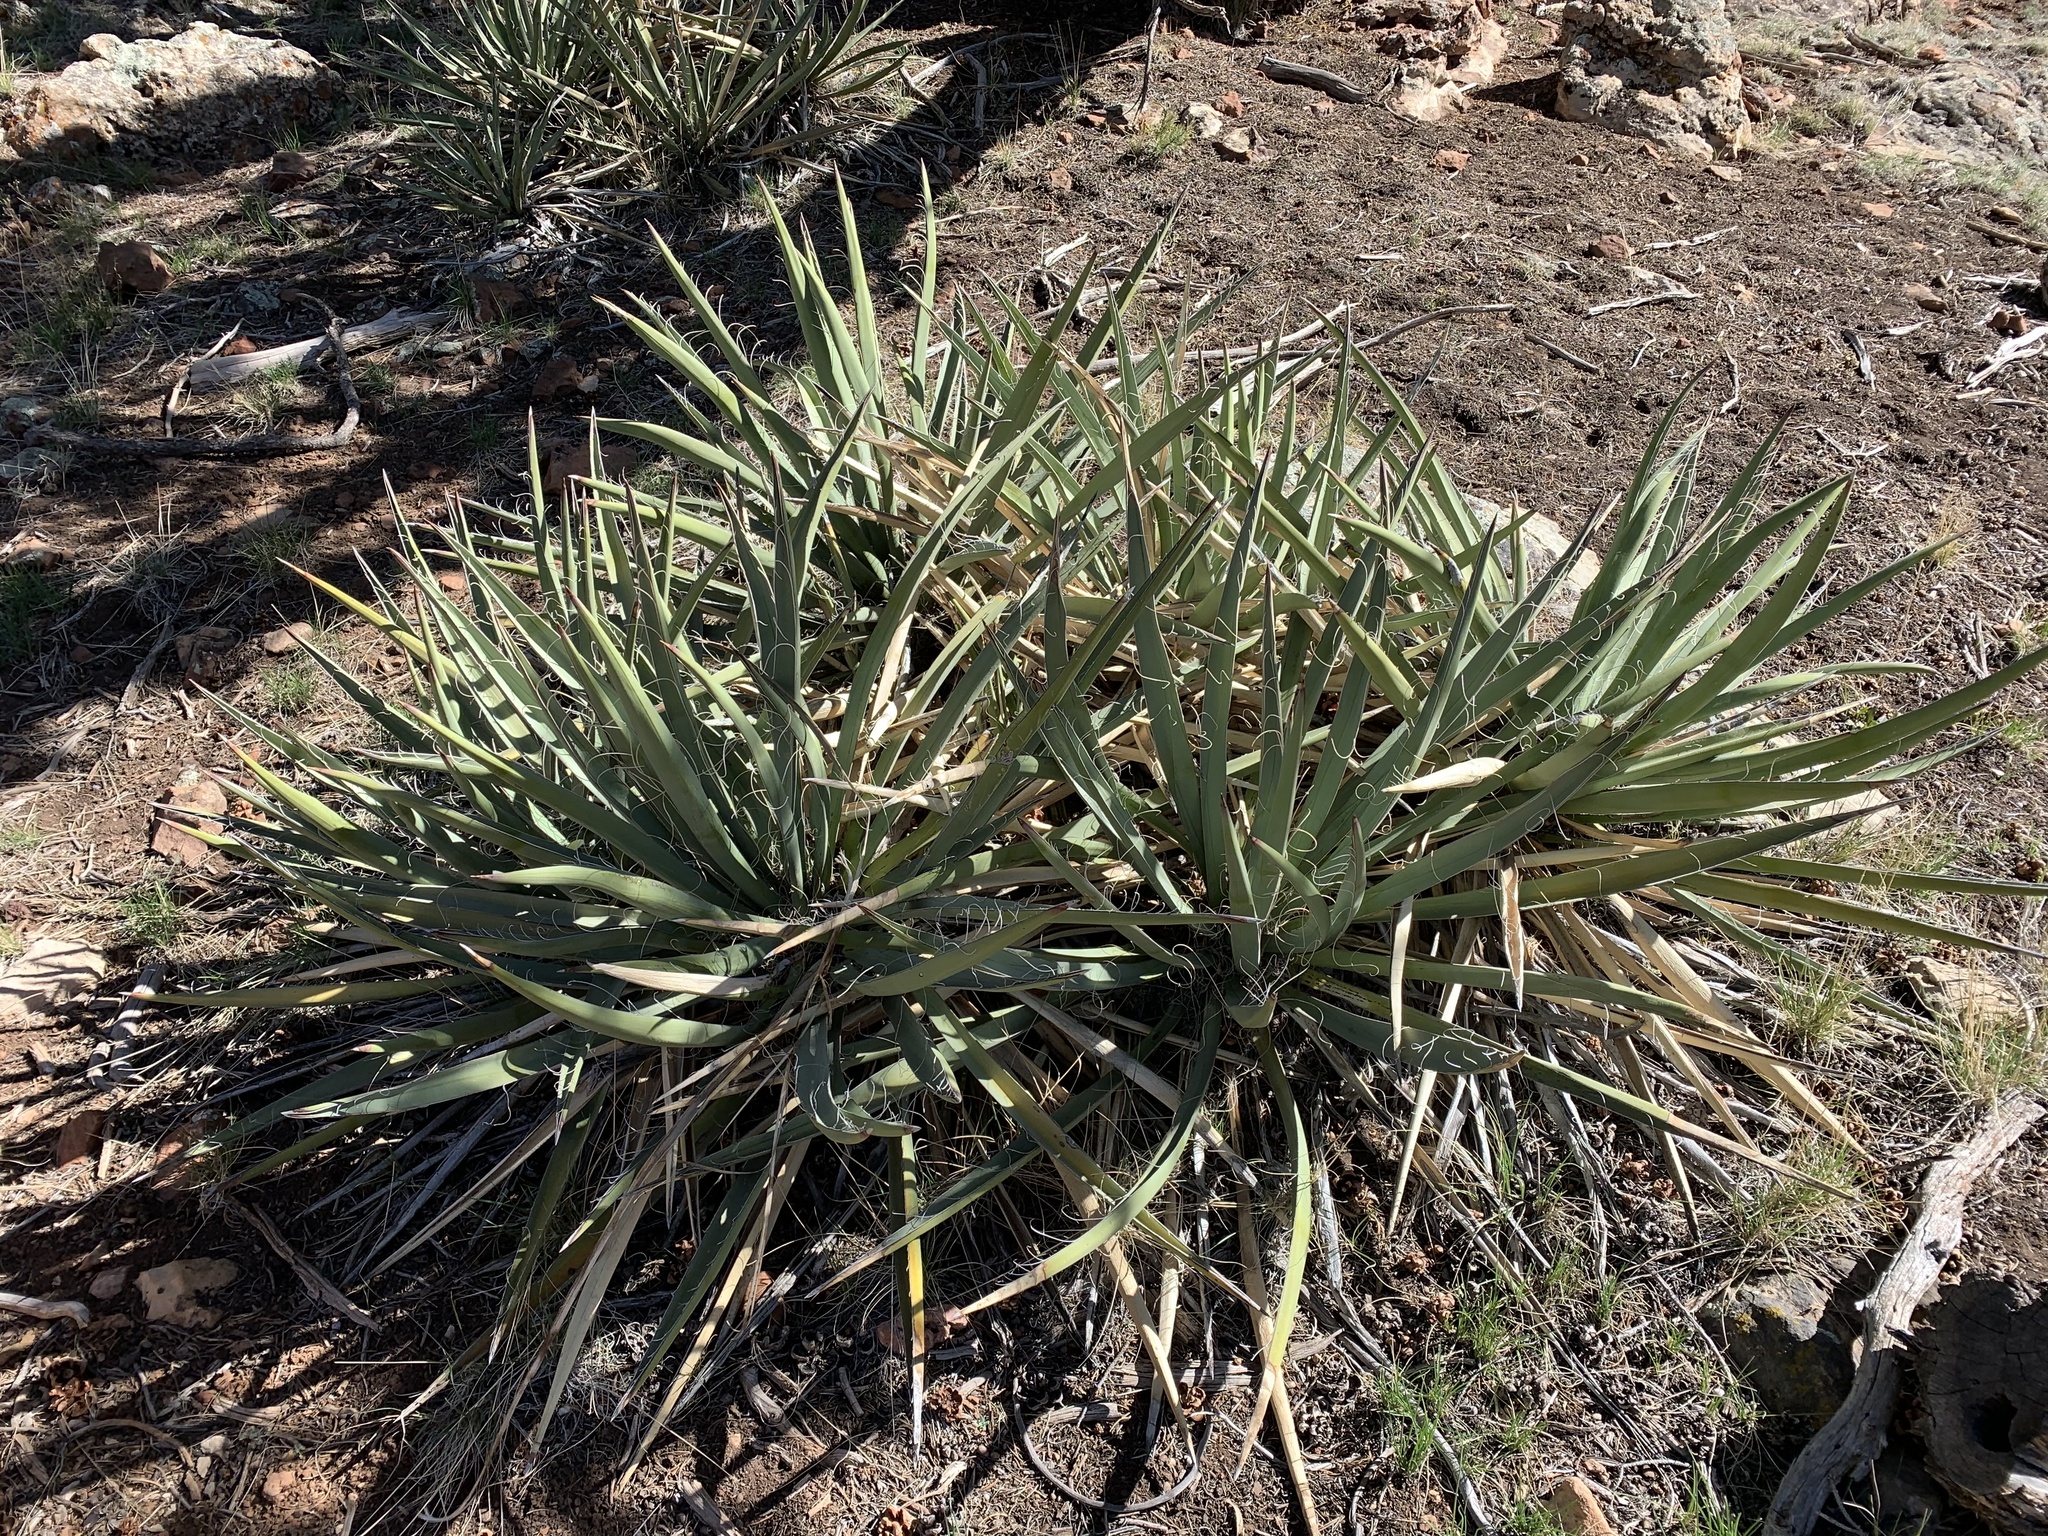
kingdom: Plantae
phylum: Tracheophyta
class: Liliopsida
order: Asparagales
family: Asparagaceae
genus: Yucca
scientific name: Yucca baccata
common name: Banana yucca
